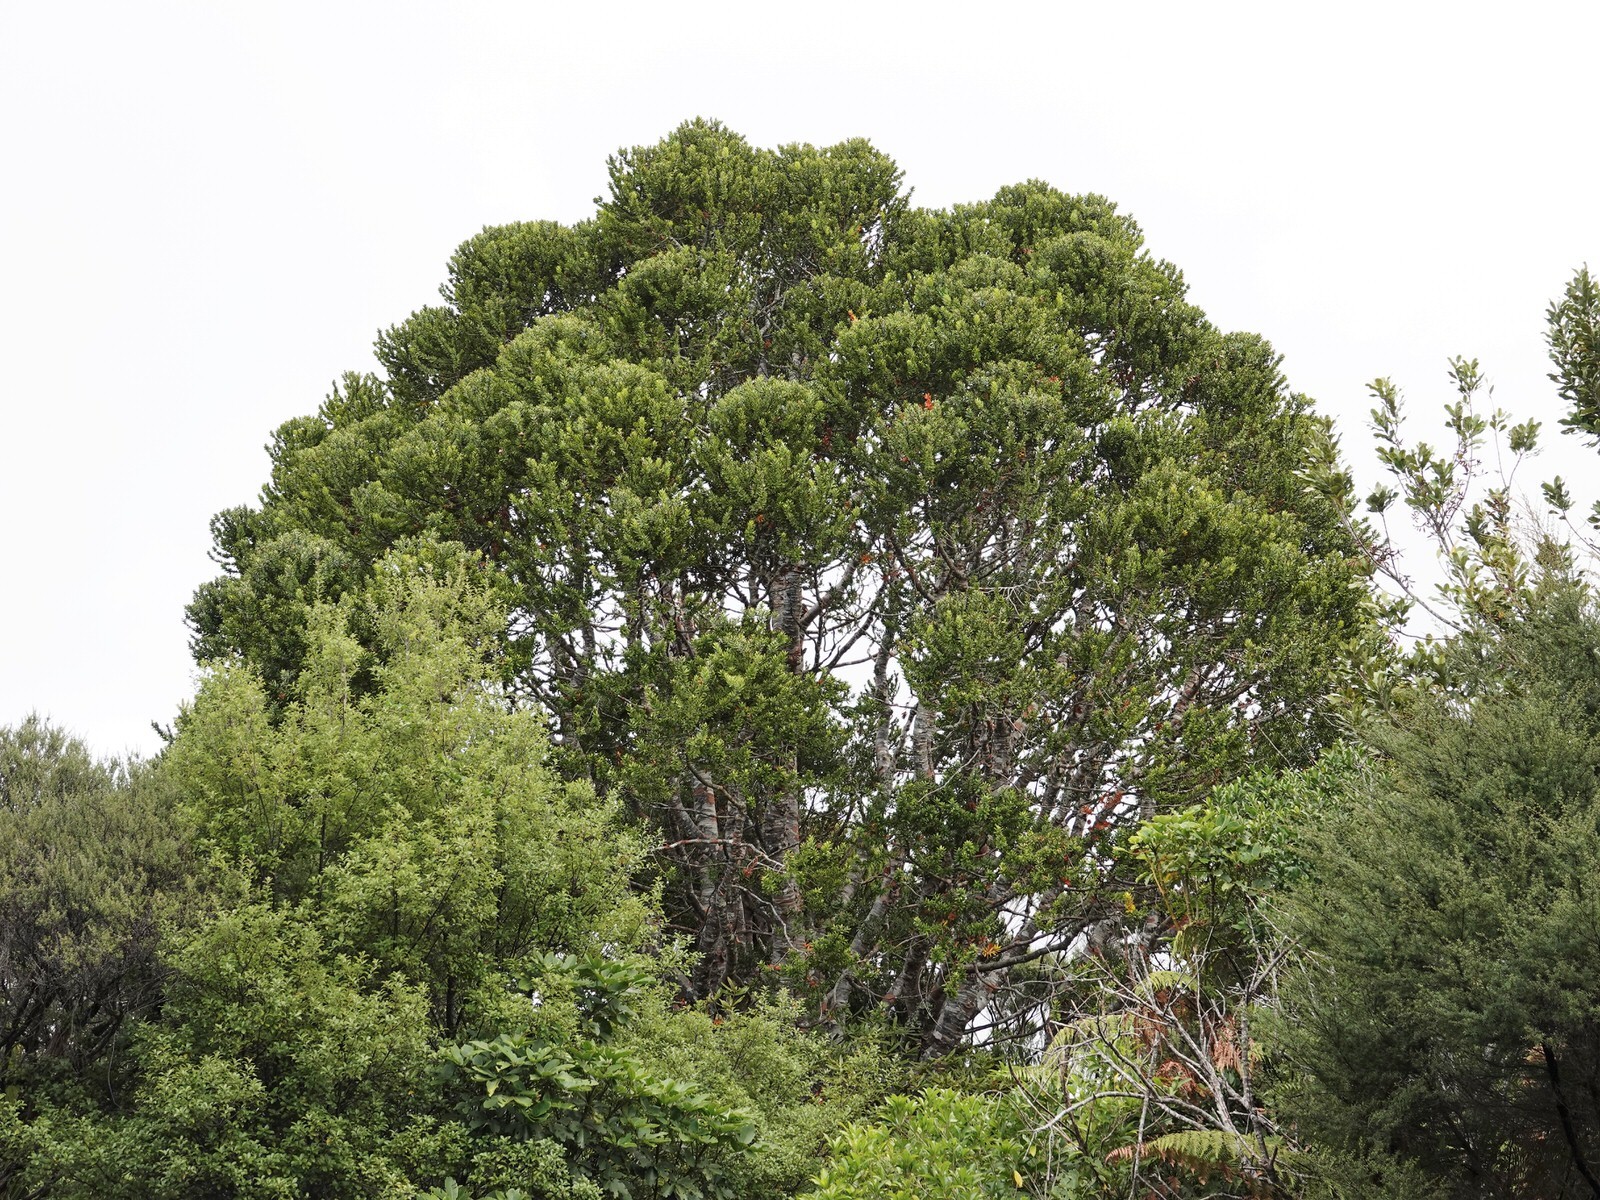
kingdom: Plantae
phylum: Tracheophyta
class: Pinopsida
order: Pinales
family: Araucariaceae
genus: Agathis
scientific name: Agathis australis
